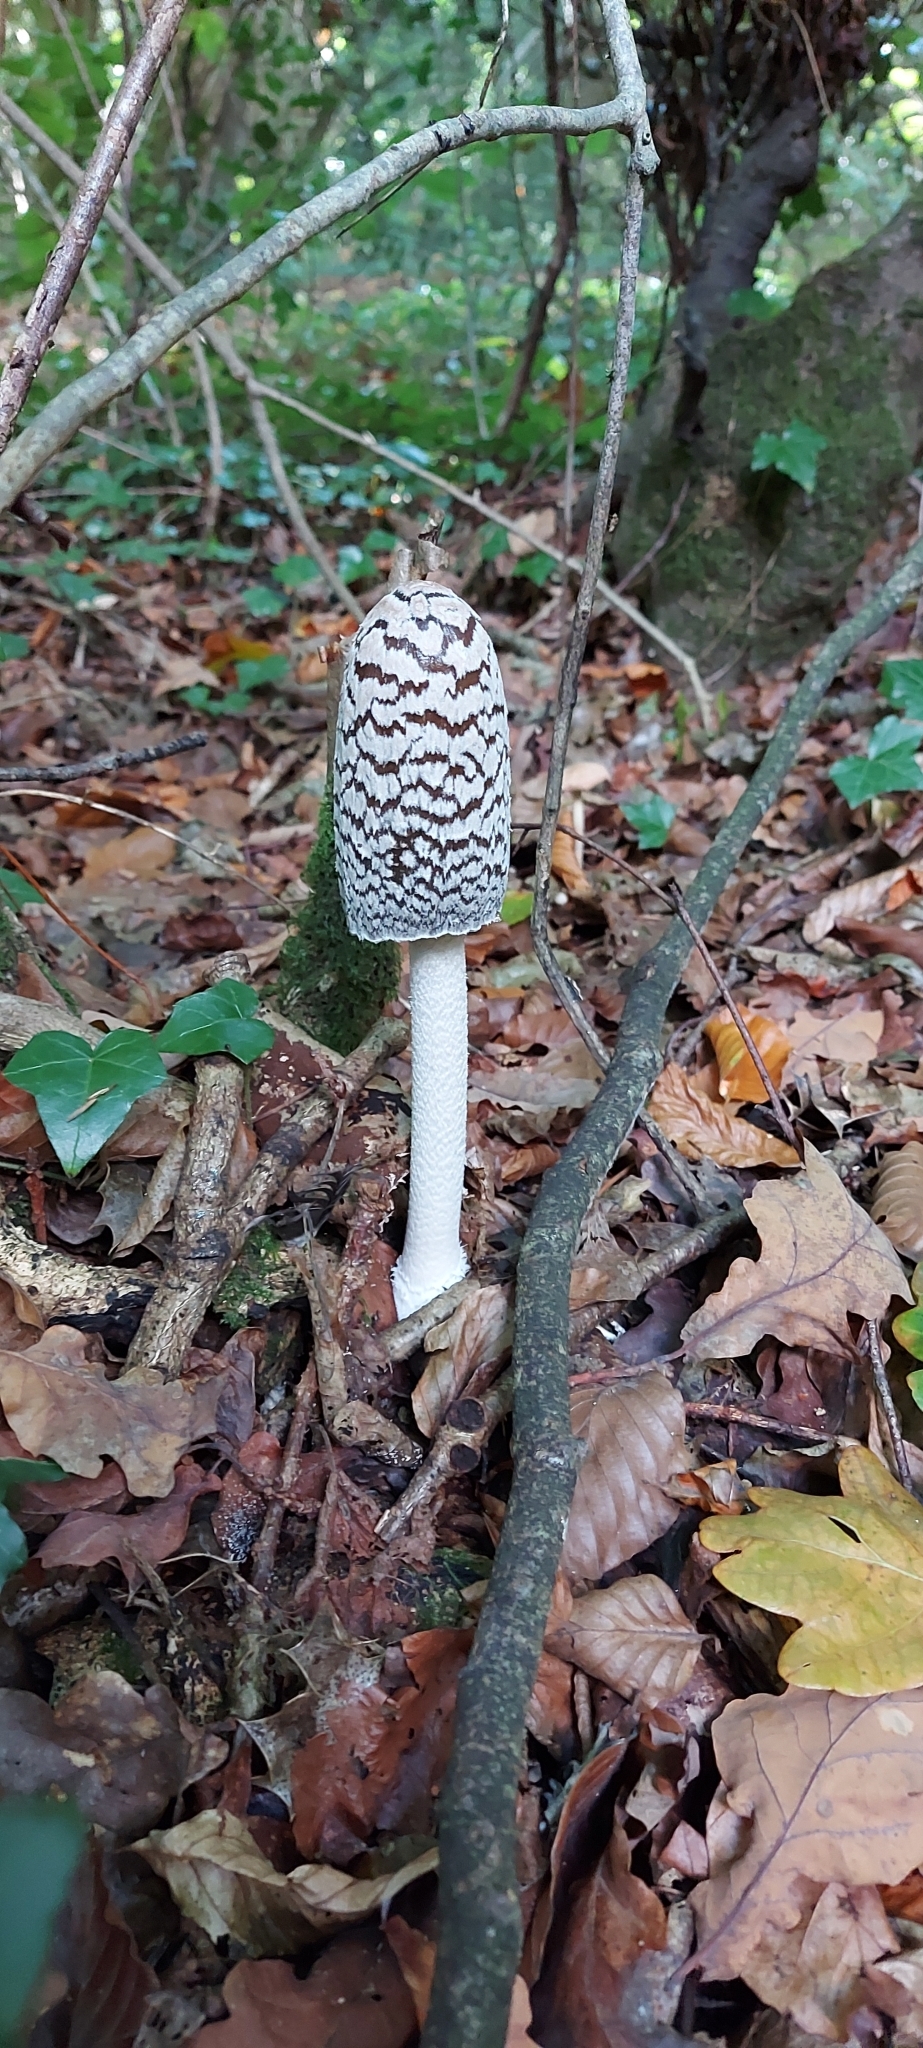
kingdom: Fungi
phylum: Basidiomycota
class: Agaricomycetes
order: Agaricales
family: Psathyrellaceae
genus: Coprinopsis
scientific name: Coprinopsis picacea
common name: Magpie inkcap
